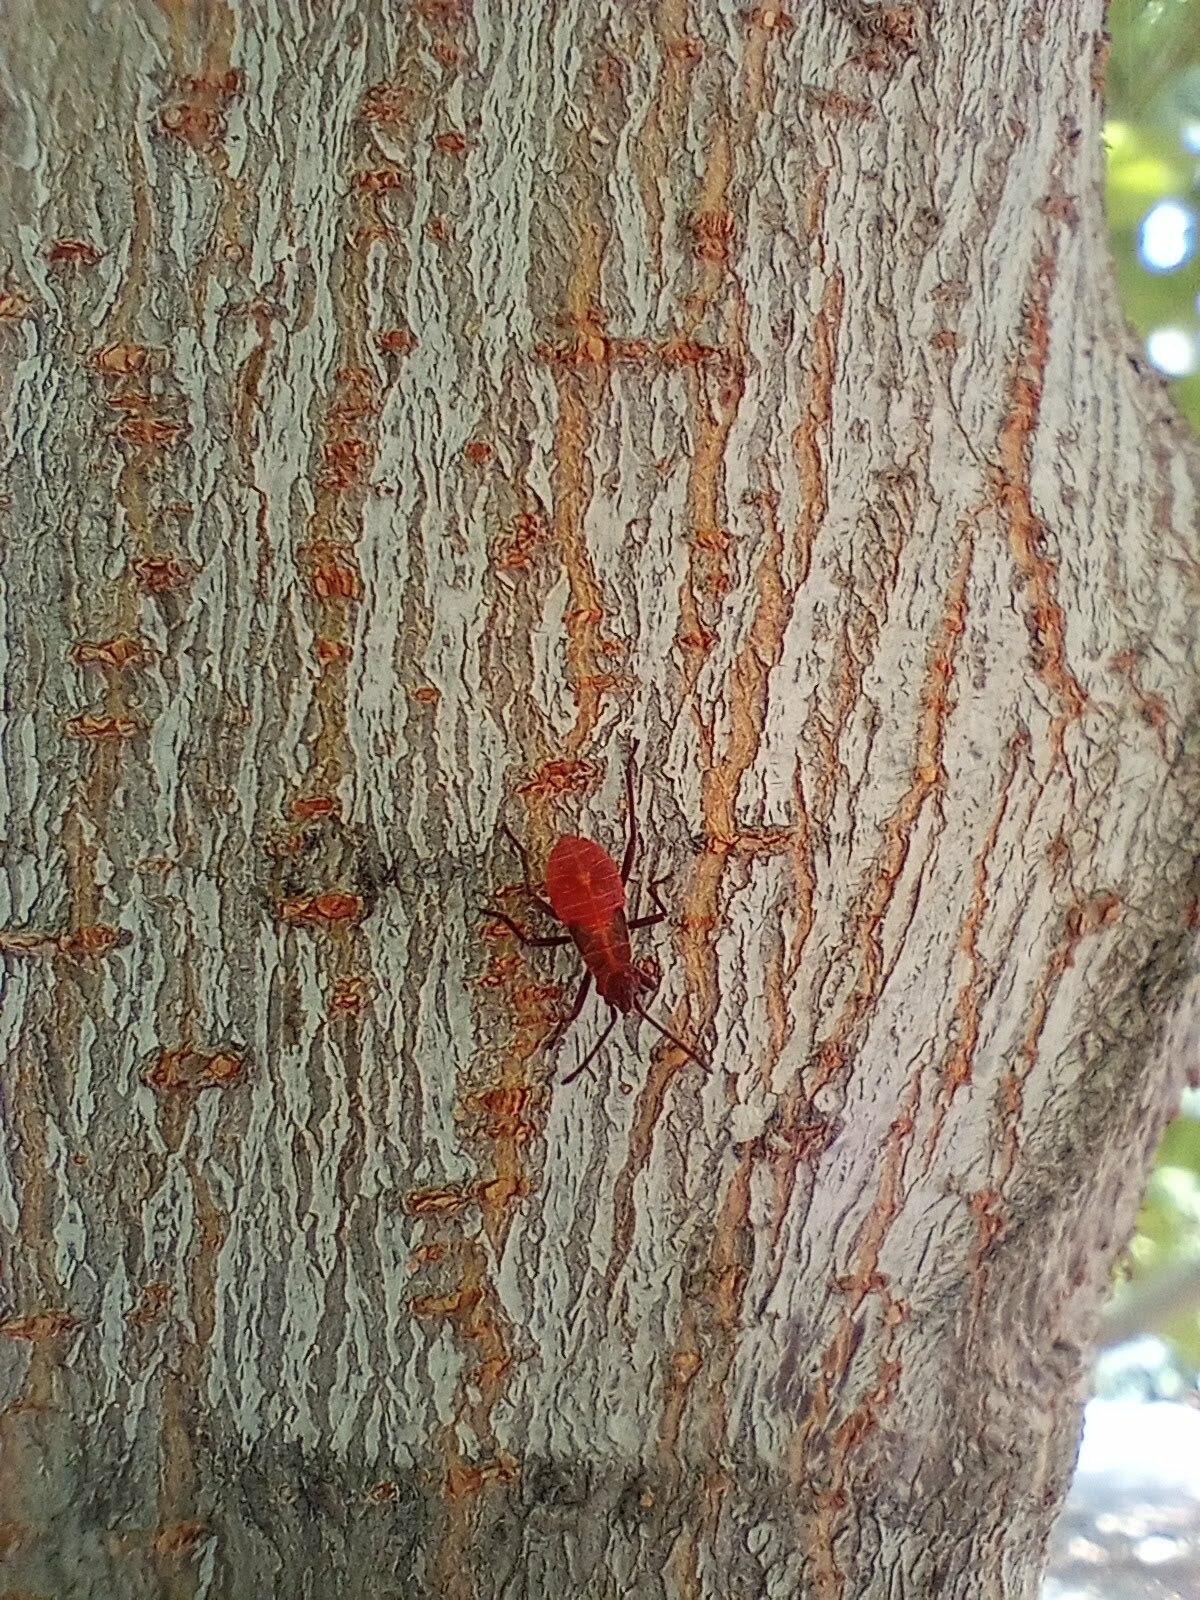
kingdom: Animalia
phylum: Arthropoda
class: Insecta
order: Hemiptera
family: Rhopalidae
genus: Boisea
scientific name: Boisea rubrolineata
